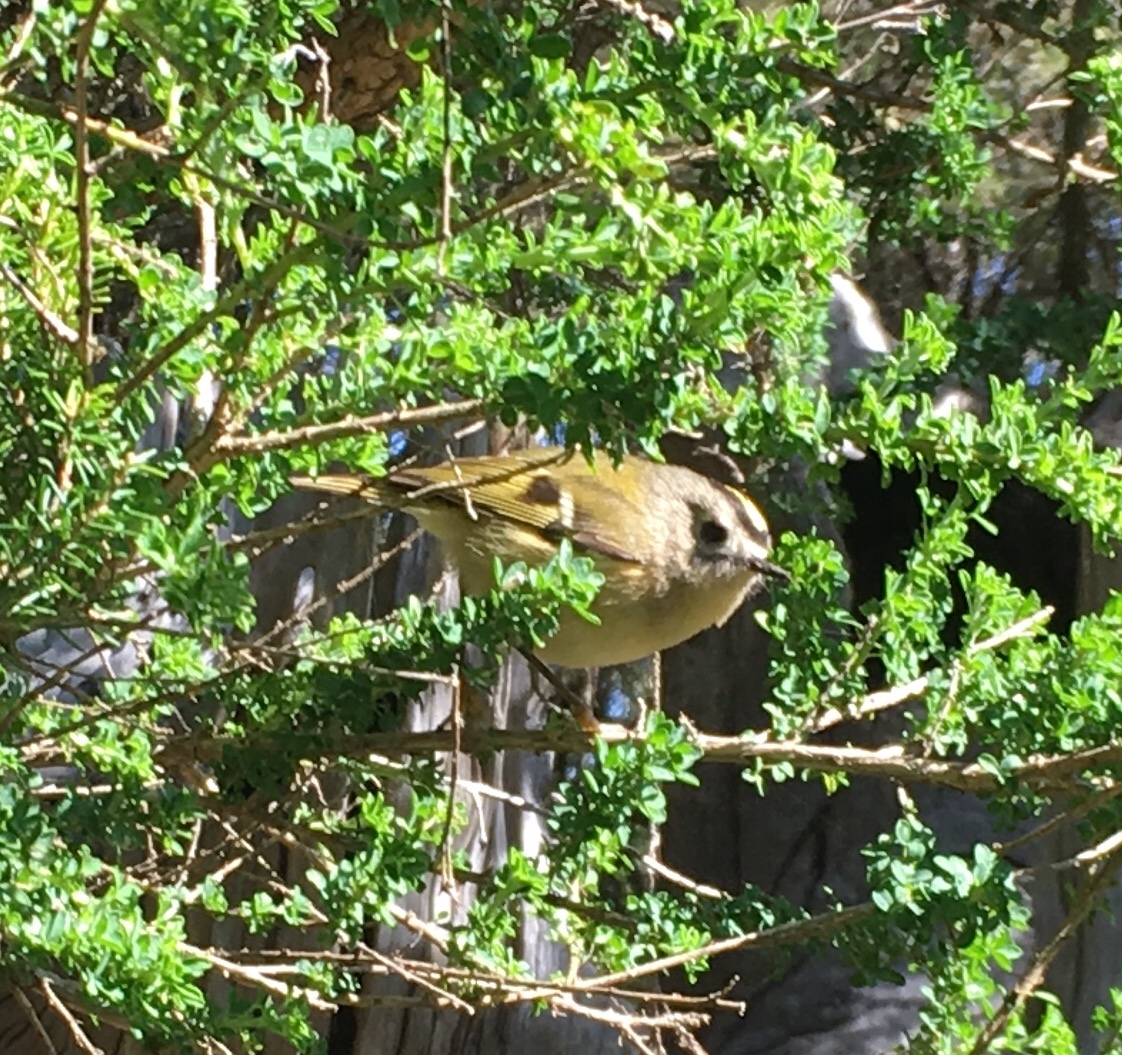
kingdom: Animalia
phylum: Chordata
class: Aves
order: Passeriformes
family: Regulidae
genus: Regulus
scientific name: Regulus regulus
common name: Goldcrest
